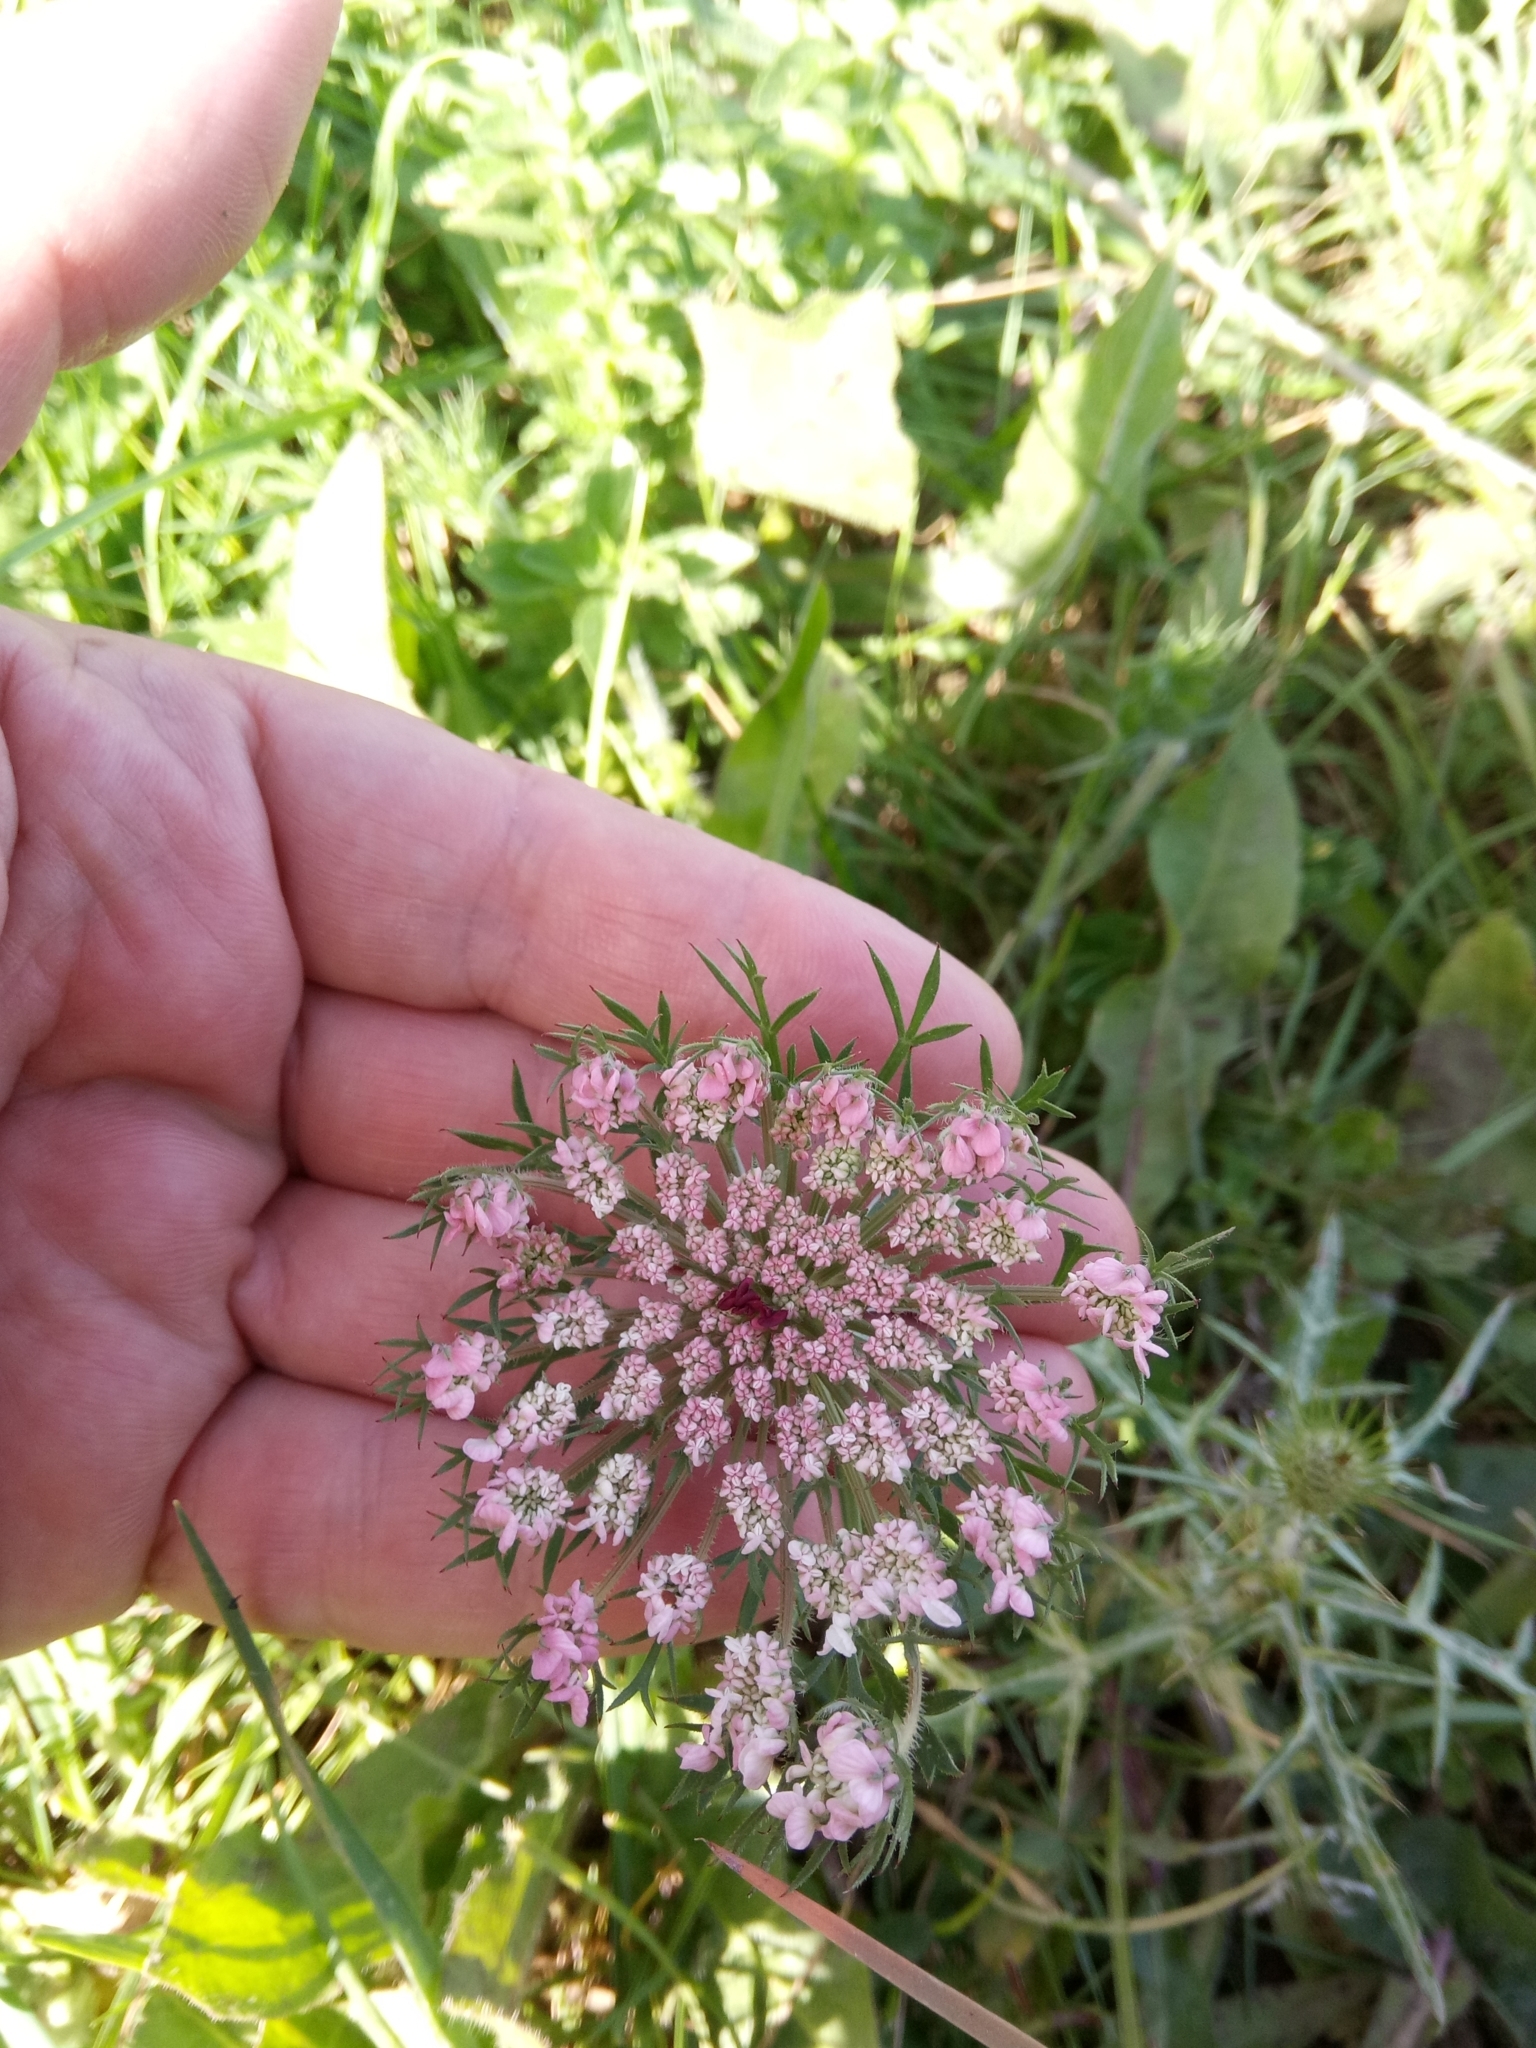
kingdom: Plantae
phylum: Tracheophyta
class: Magnoliopsida
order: Apiales
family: Apiaceae
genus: Daucus
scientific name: Daucus carota
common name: Wild carrot
